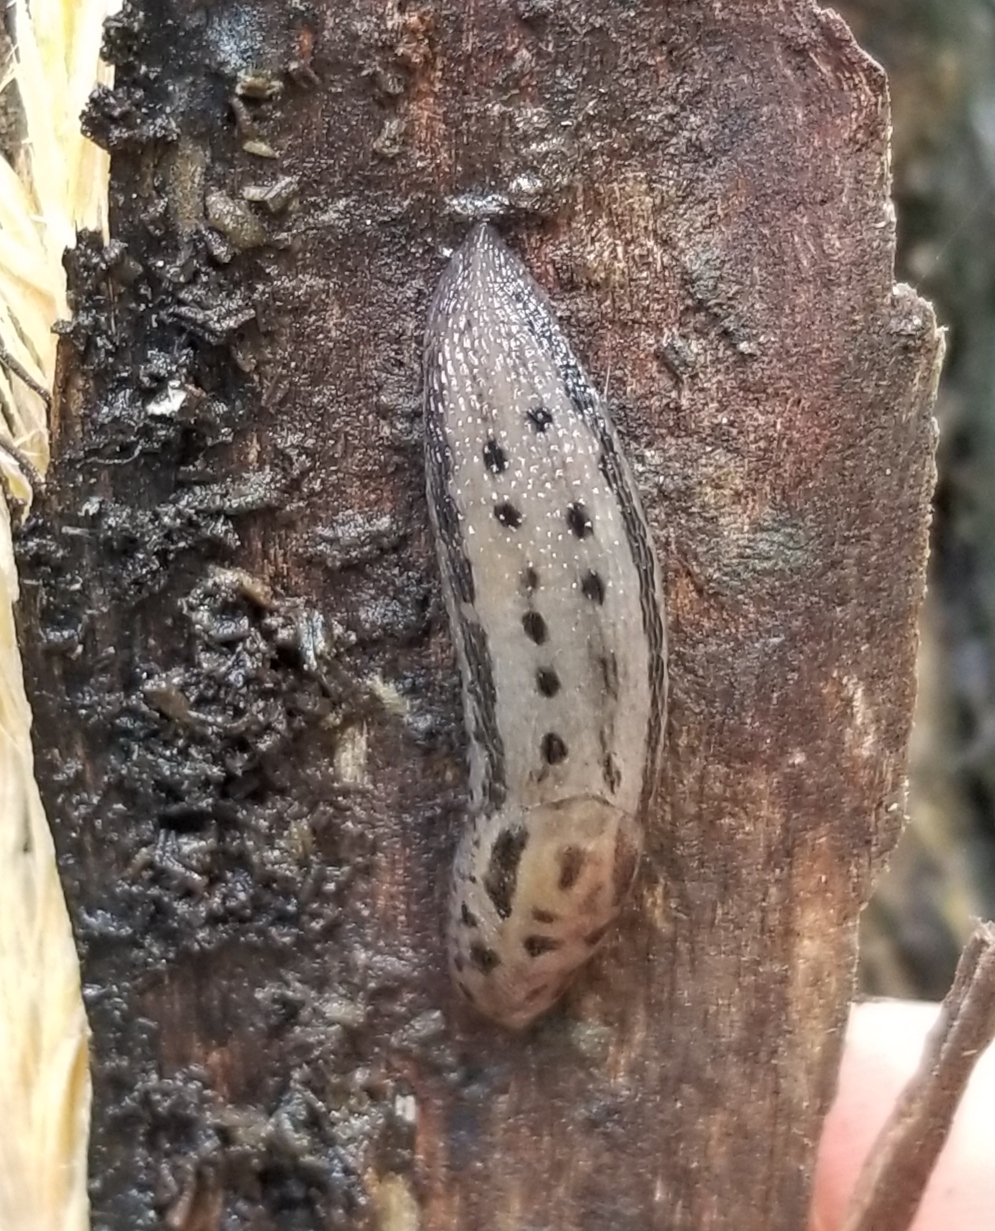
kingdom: Animalia
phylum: Mollusca
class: Gastropoda
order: Stylommatophora
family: Limacidae
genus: Limax
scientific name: Limax maximus
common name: Great grey slug
